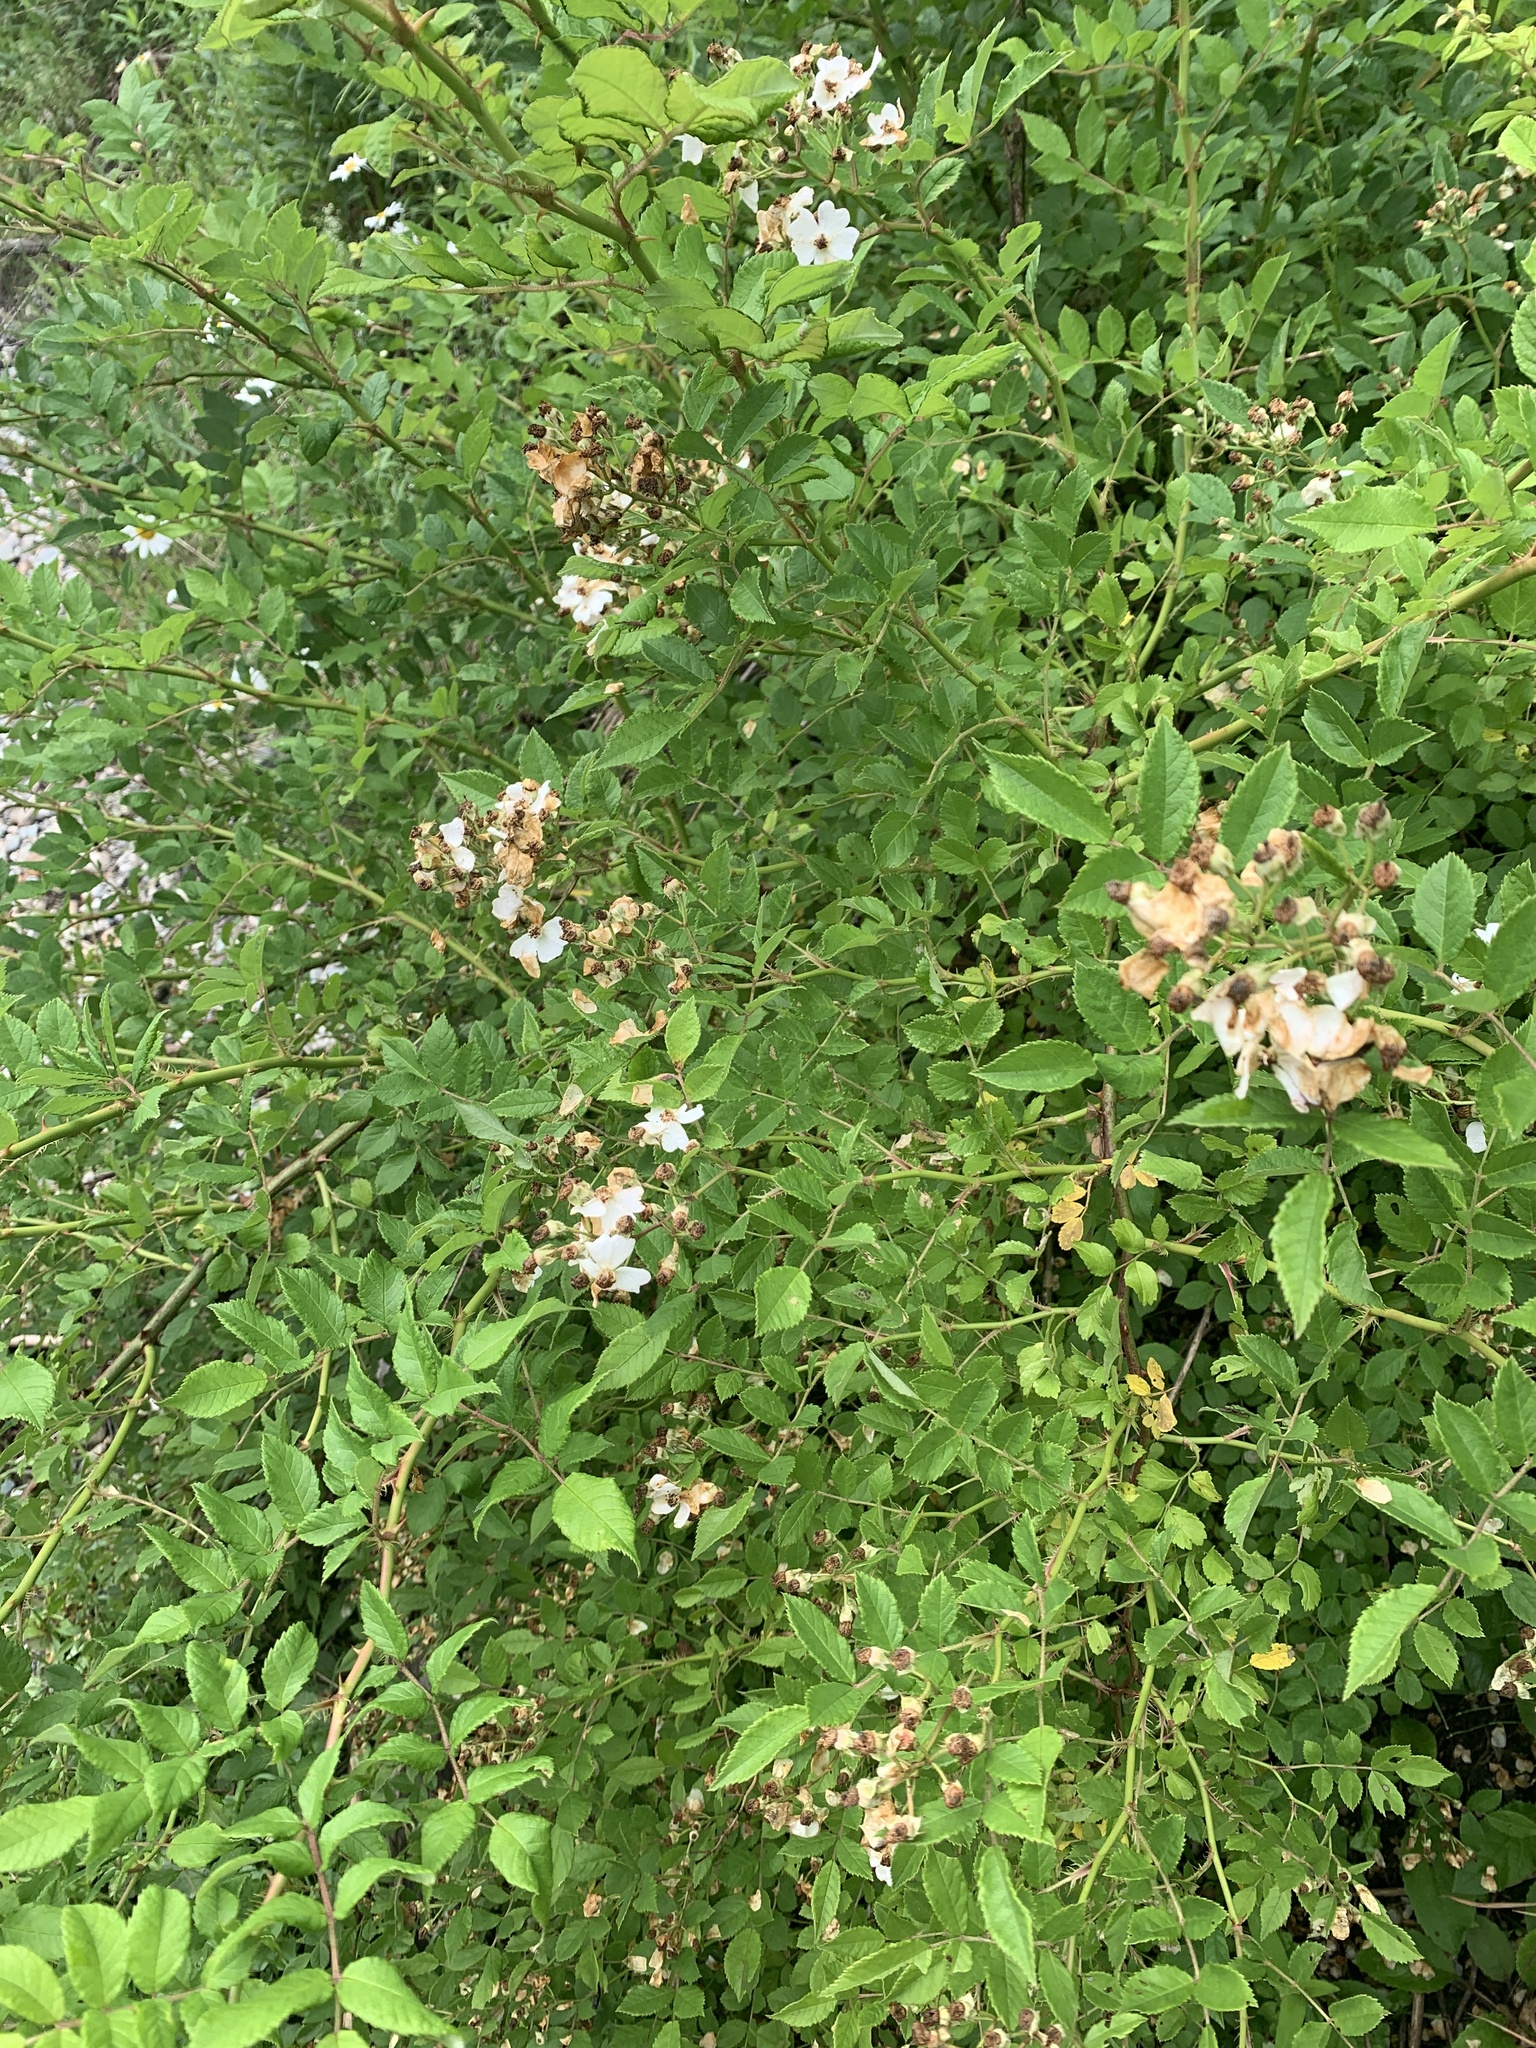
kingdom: Plantae
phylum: Tracheophyta
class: Magnoliopsida
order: Rosales
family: Rosaceae
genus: Rosa
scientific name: Rosa multiflora
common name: Multiflora rose
